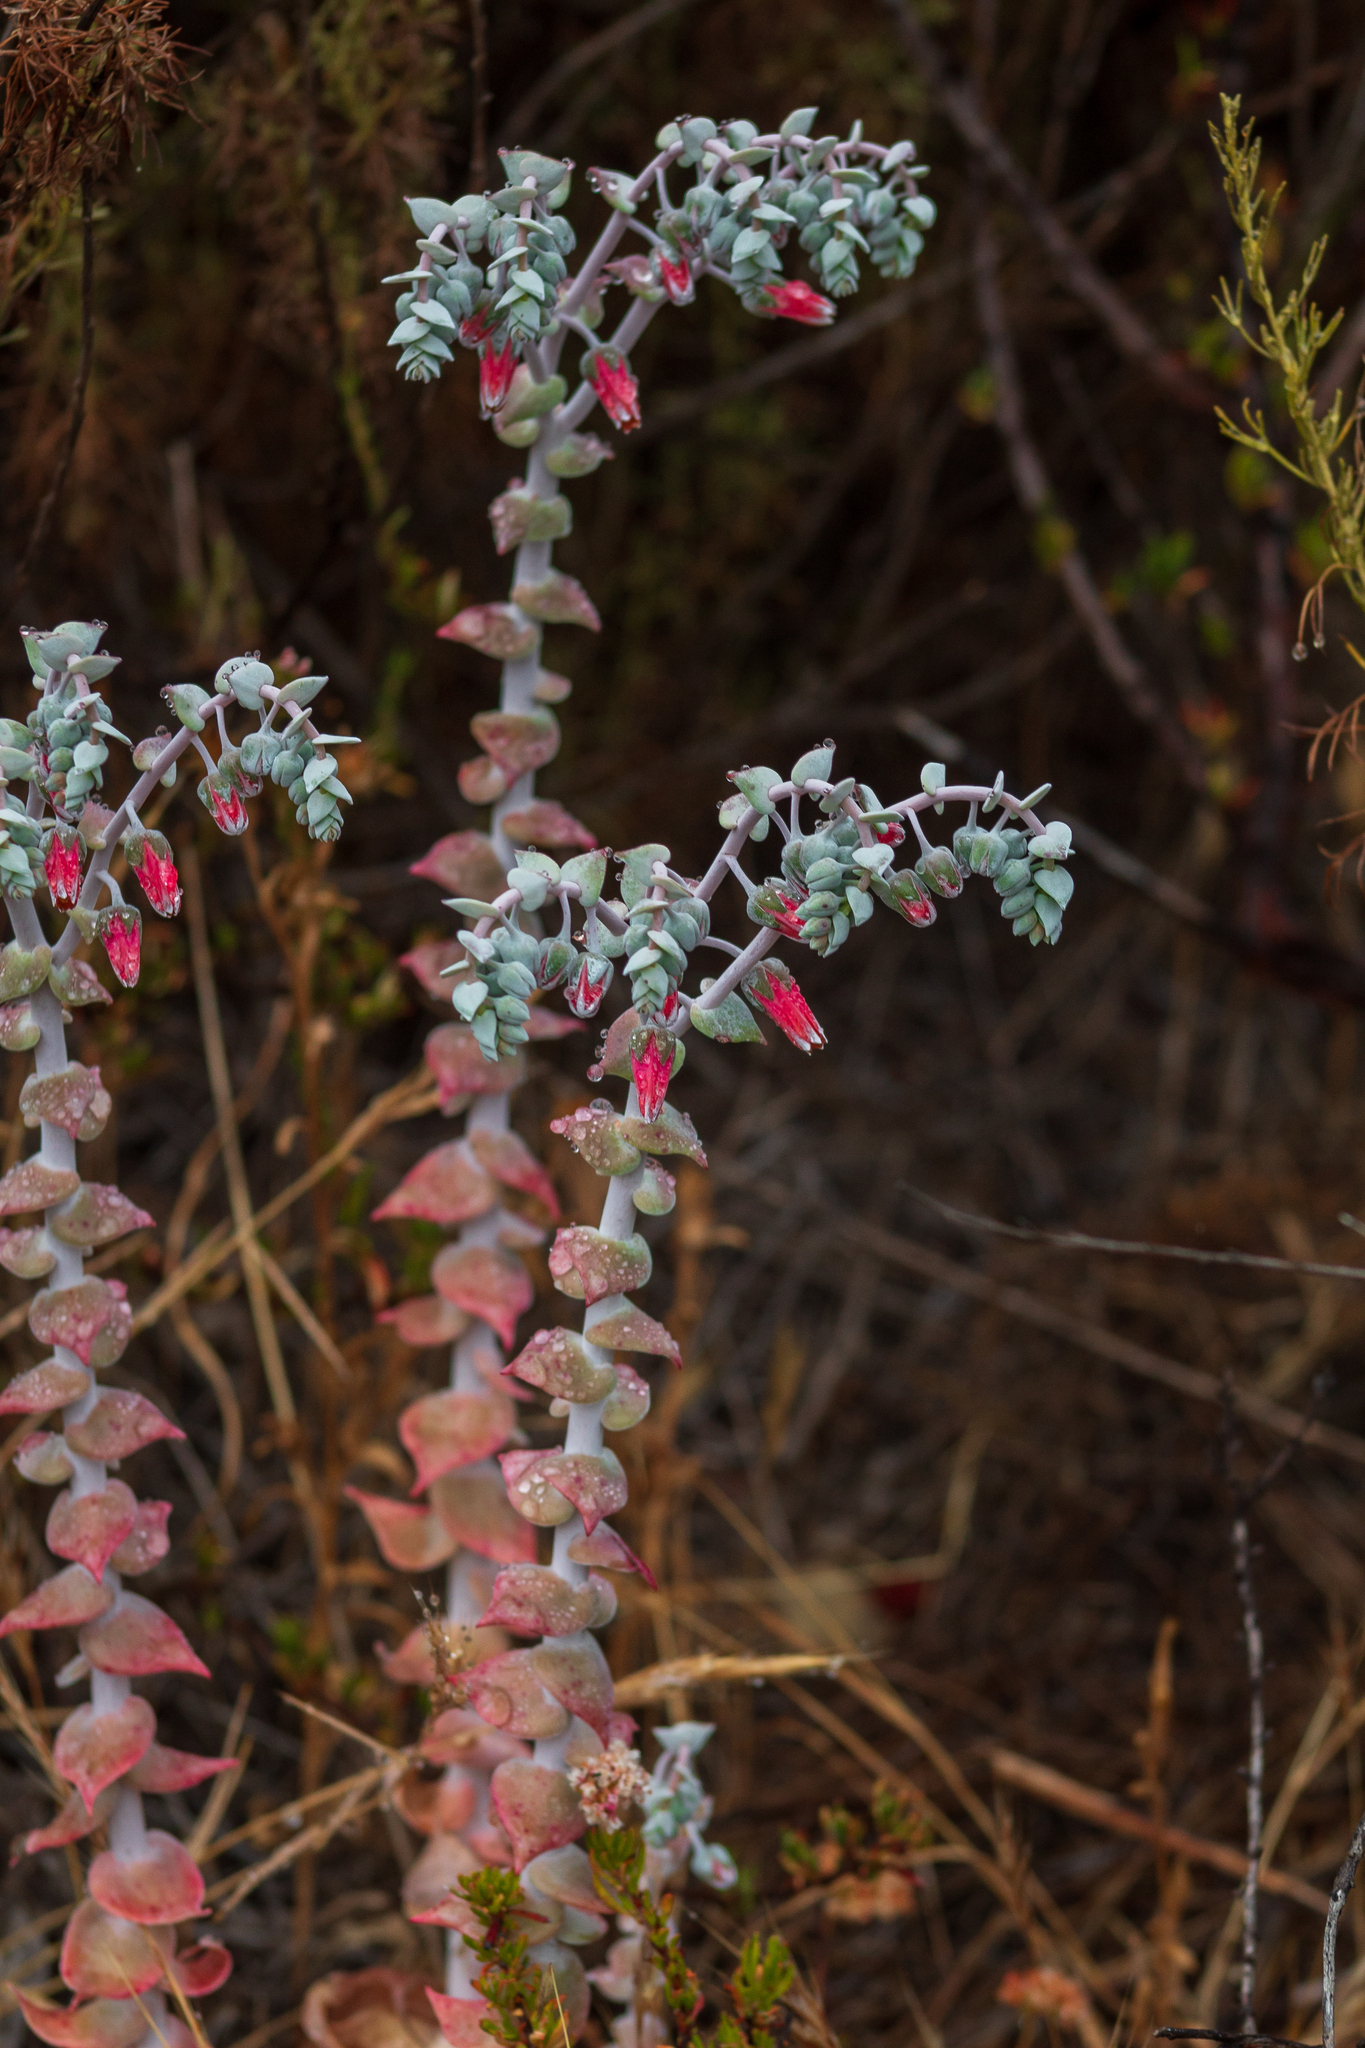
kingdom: Plantae
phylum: Tracheophyta
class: Magnoliopsida
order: Saxifragales
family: Crassulaceae
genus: Dudleya
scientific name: Dudleya pulverulenta
